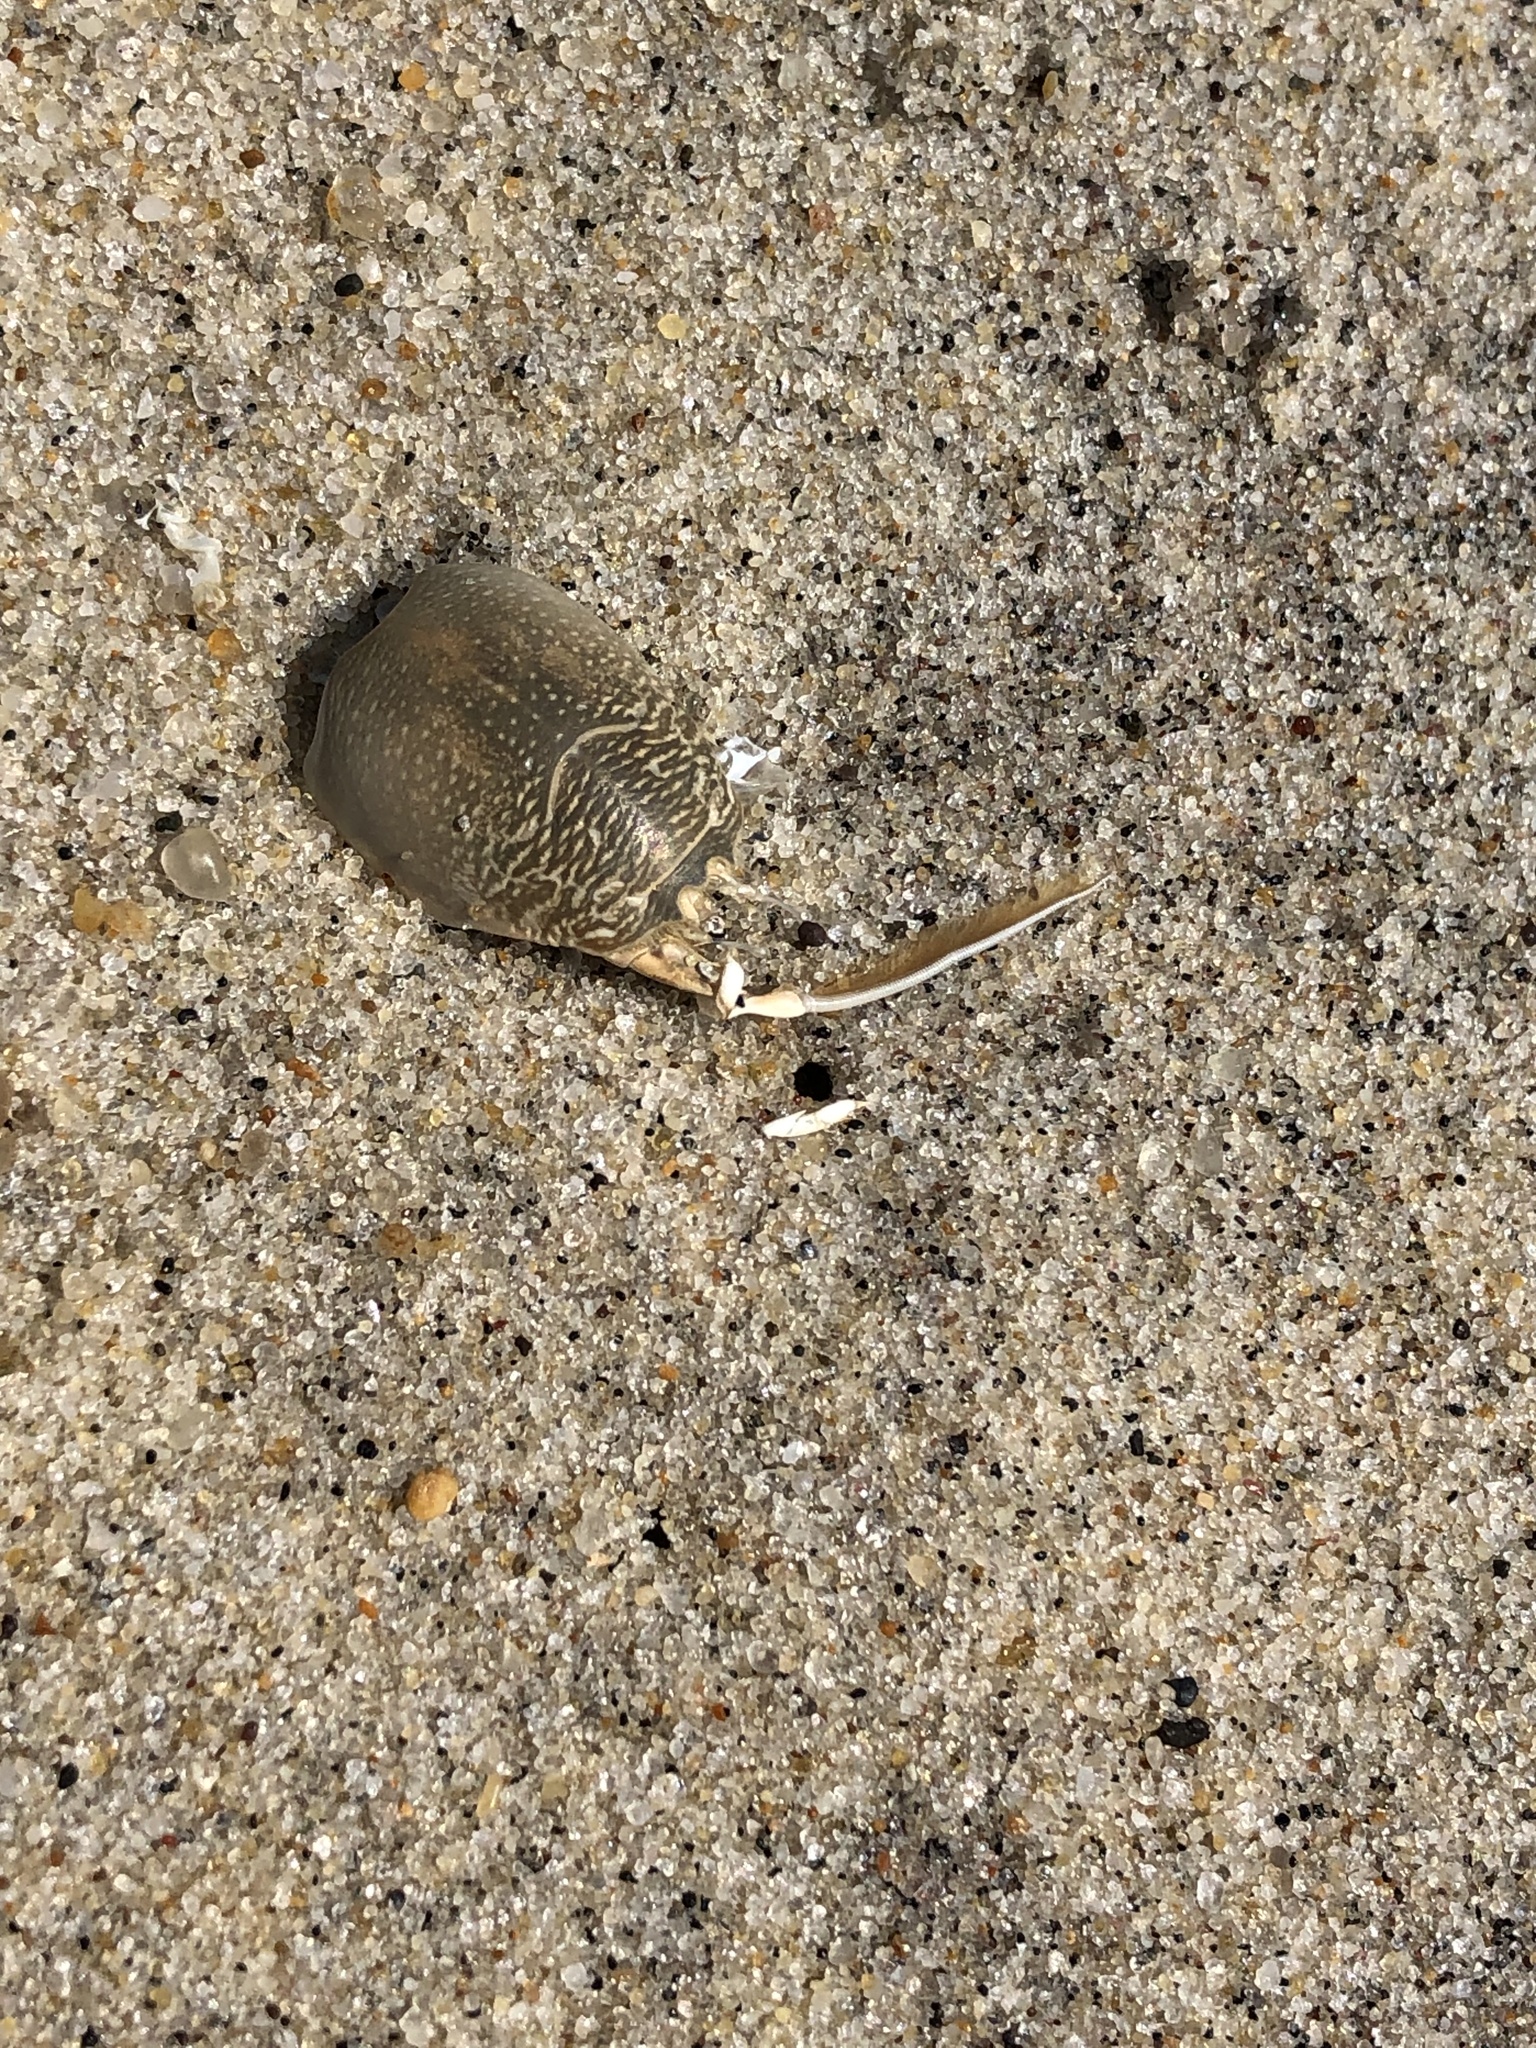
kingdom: Animalia
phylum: Arthropoda
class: Malacostraca
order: Decapoda
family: Hippidae
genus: Emerita
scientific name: Emerita talpoida
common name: Atlantic sand crab
